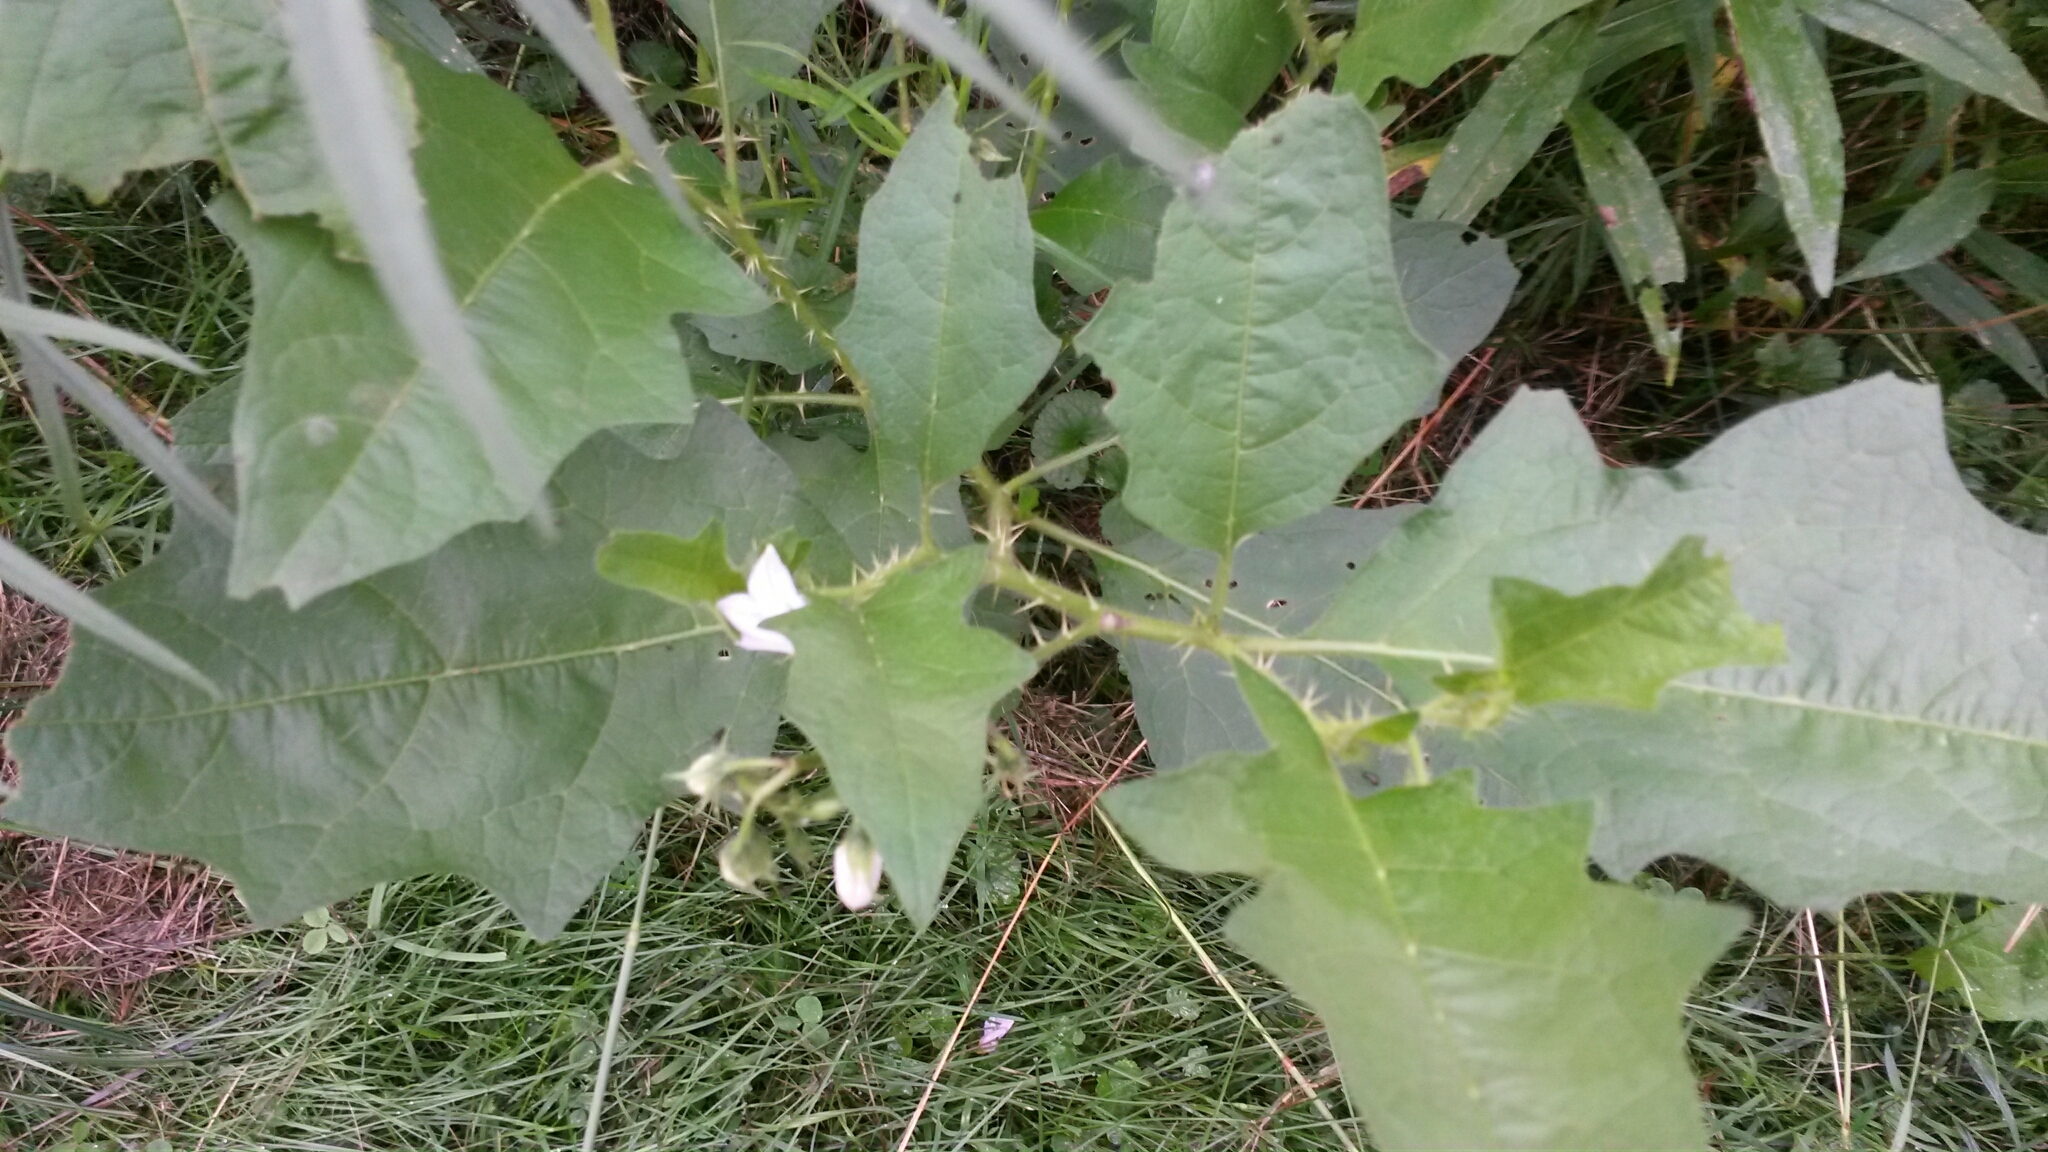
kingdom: Plantae
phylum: Tracheophyta
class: Magnoliopsida
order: Solanales
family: Solanaceae
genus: Solanum
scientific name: Solanum carolinense
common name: Horse-nettle
